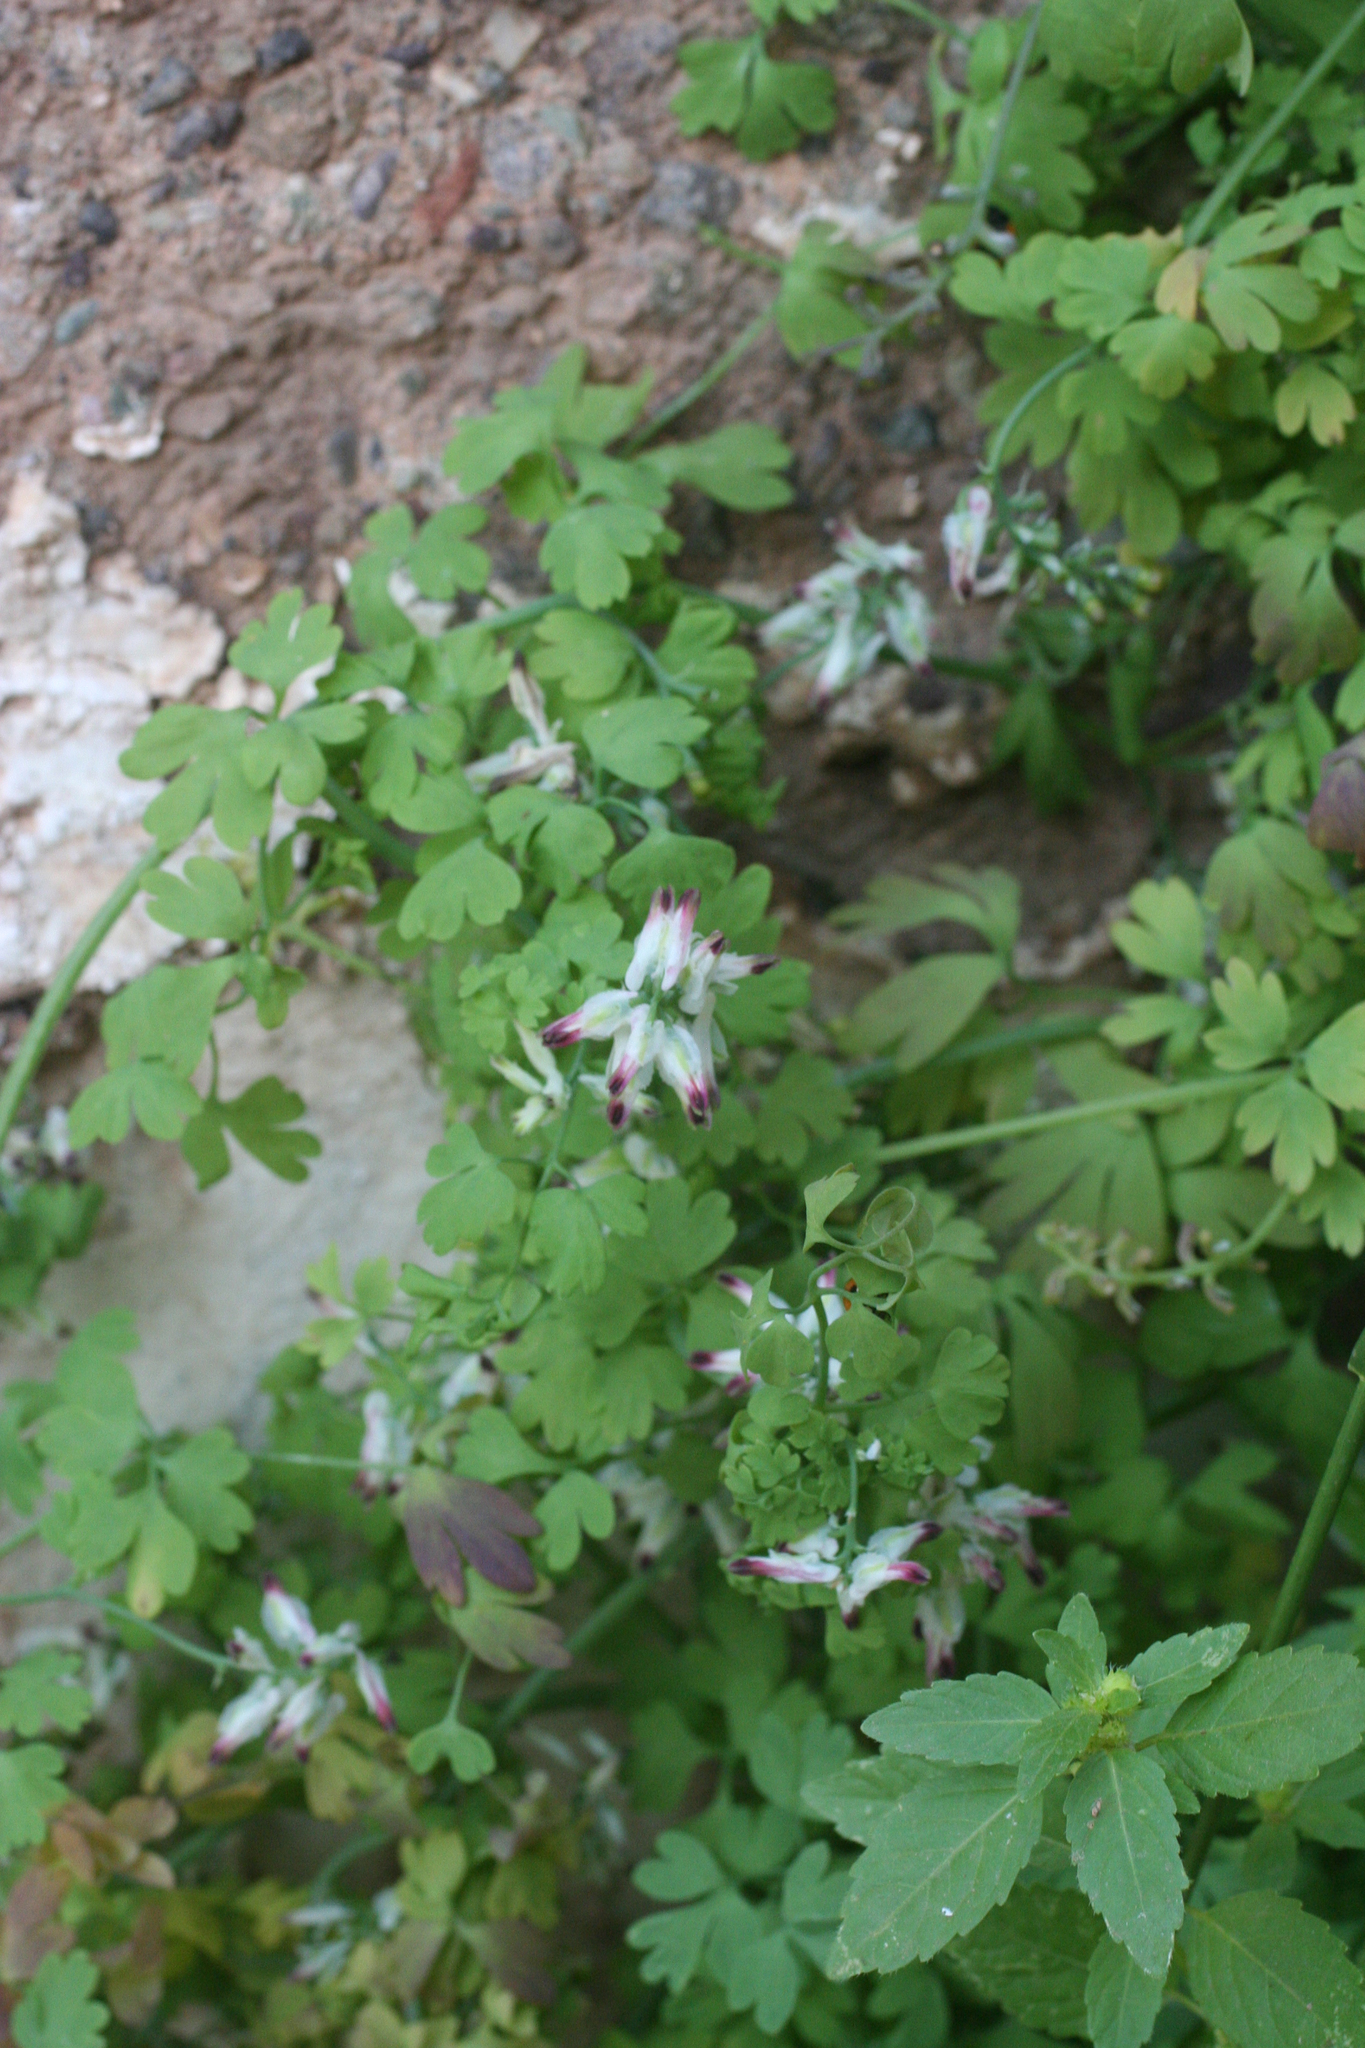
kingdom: Plantae
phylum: Tracheophyta
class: Magnoliopsida
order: Ranunculales
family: Papaveraceae
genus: Fumaria
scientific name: Fumaria capreolata
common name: White ramping-fumitory
